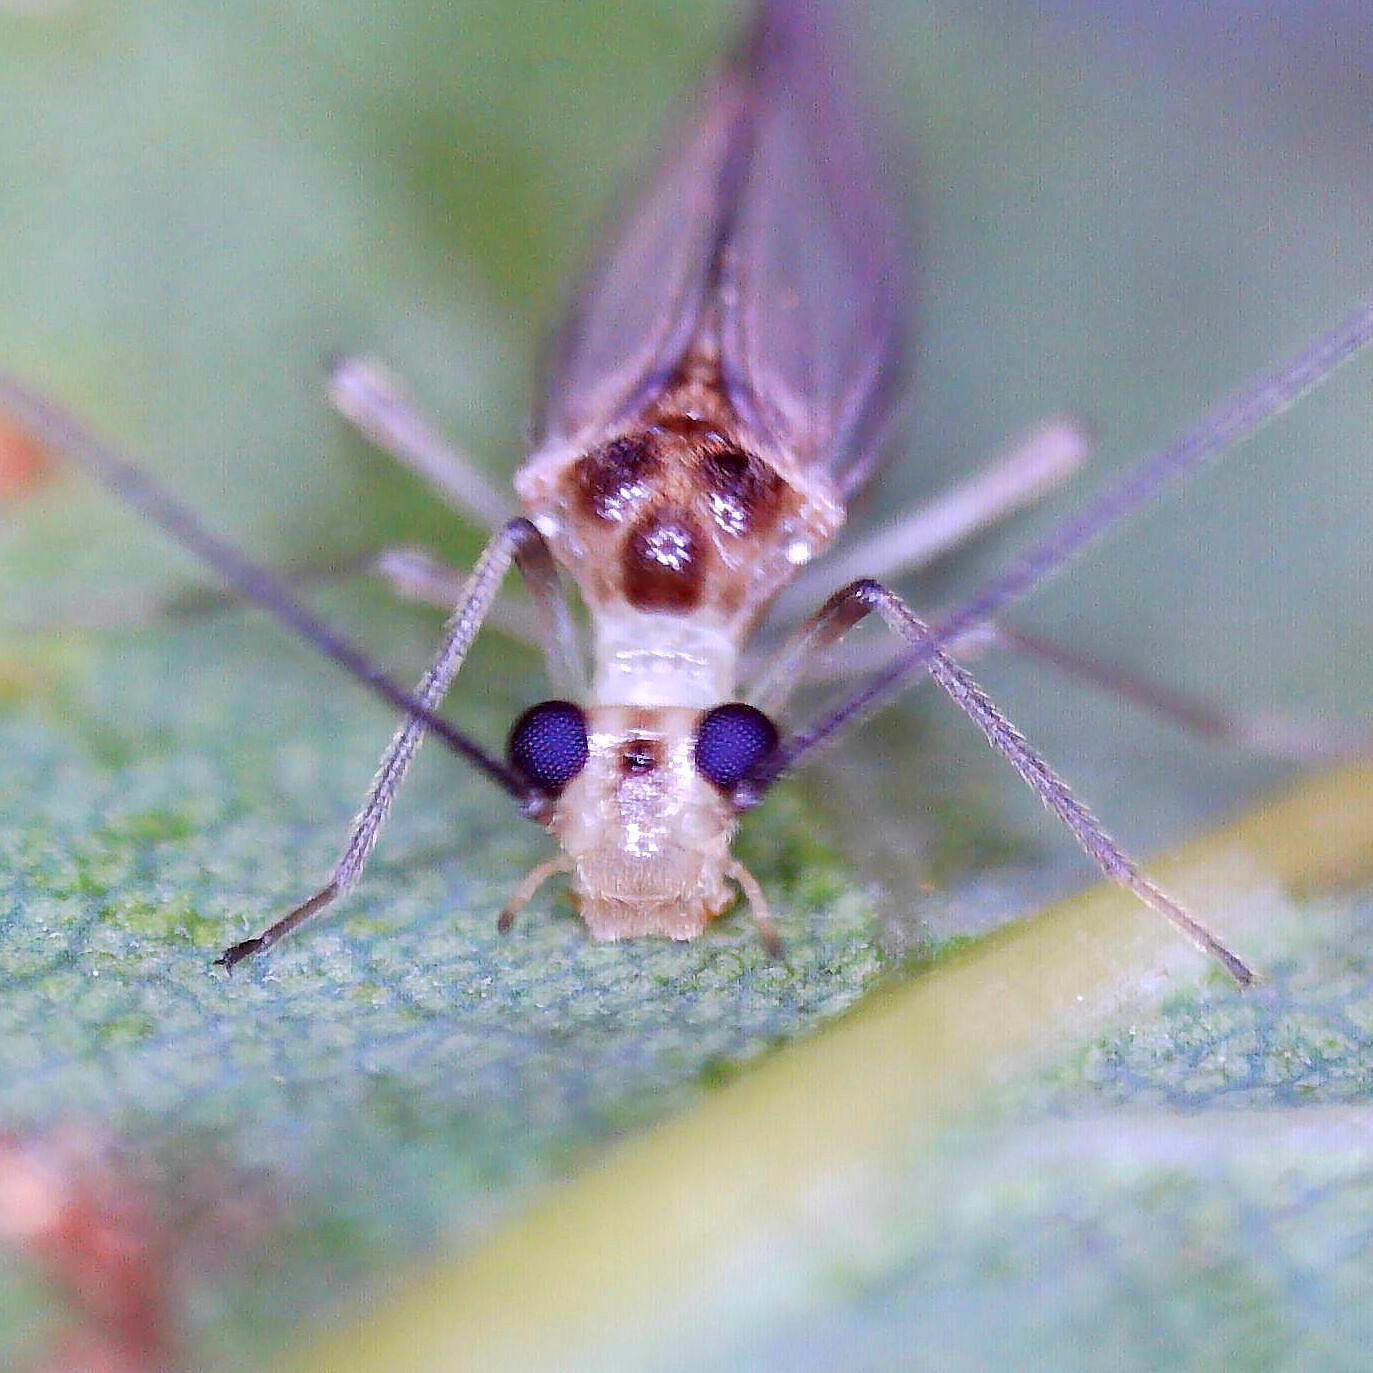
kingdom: Animalia
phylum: Arthropoda
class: Insecta
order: Psocodea
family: Stenopsocidae
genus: Stenopsocus
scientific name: Stenopsocus immaculatus
